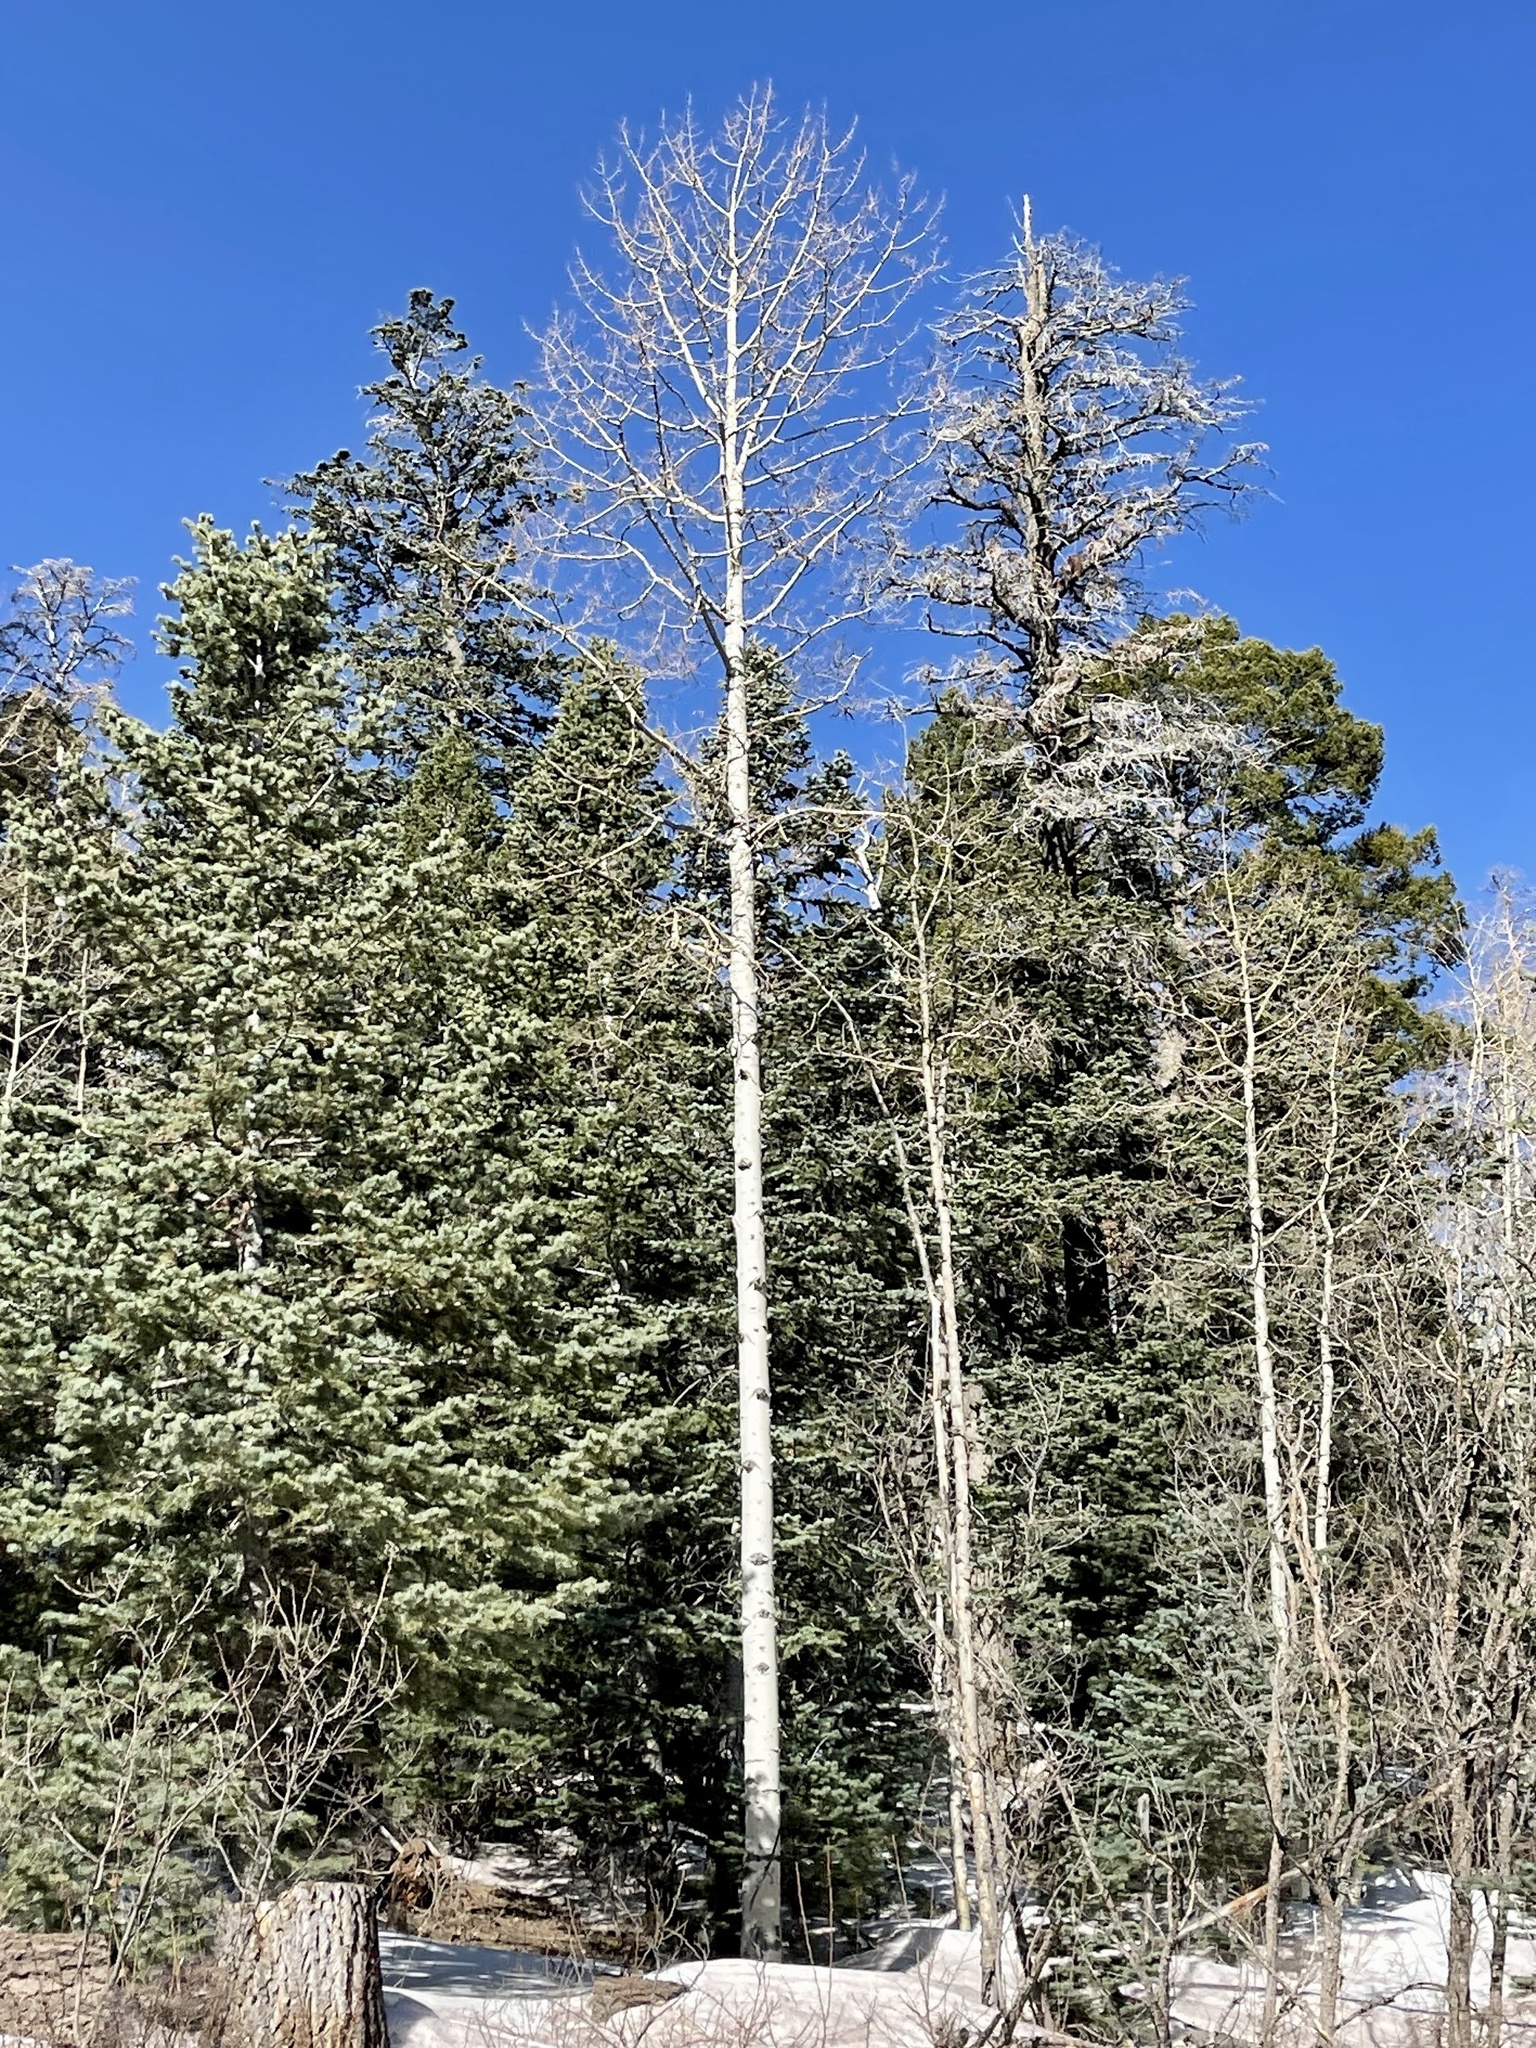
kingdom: Plantae
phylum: Tracheophyta
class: Magnoliopsida
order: Malpighiales
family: Salicaceae
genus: Populus
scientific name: Populus tremuloides
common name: Quaking aspen
